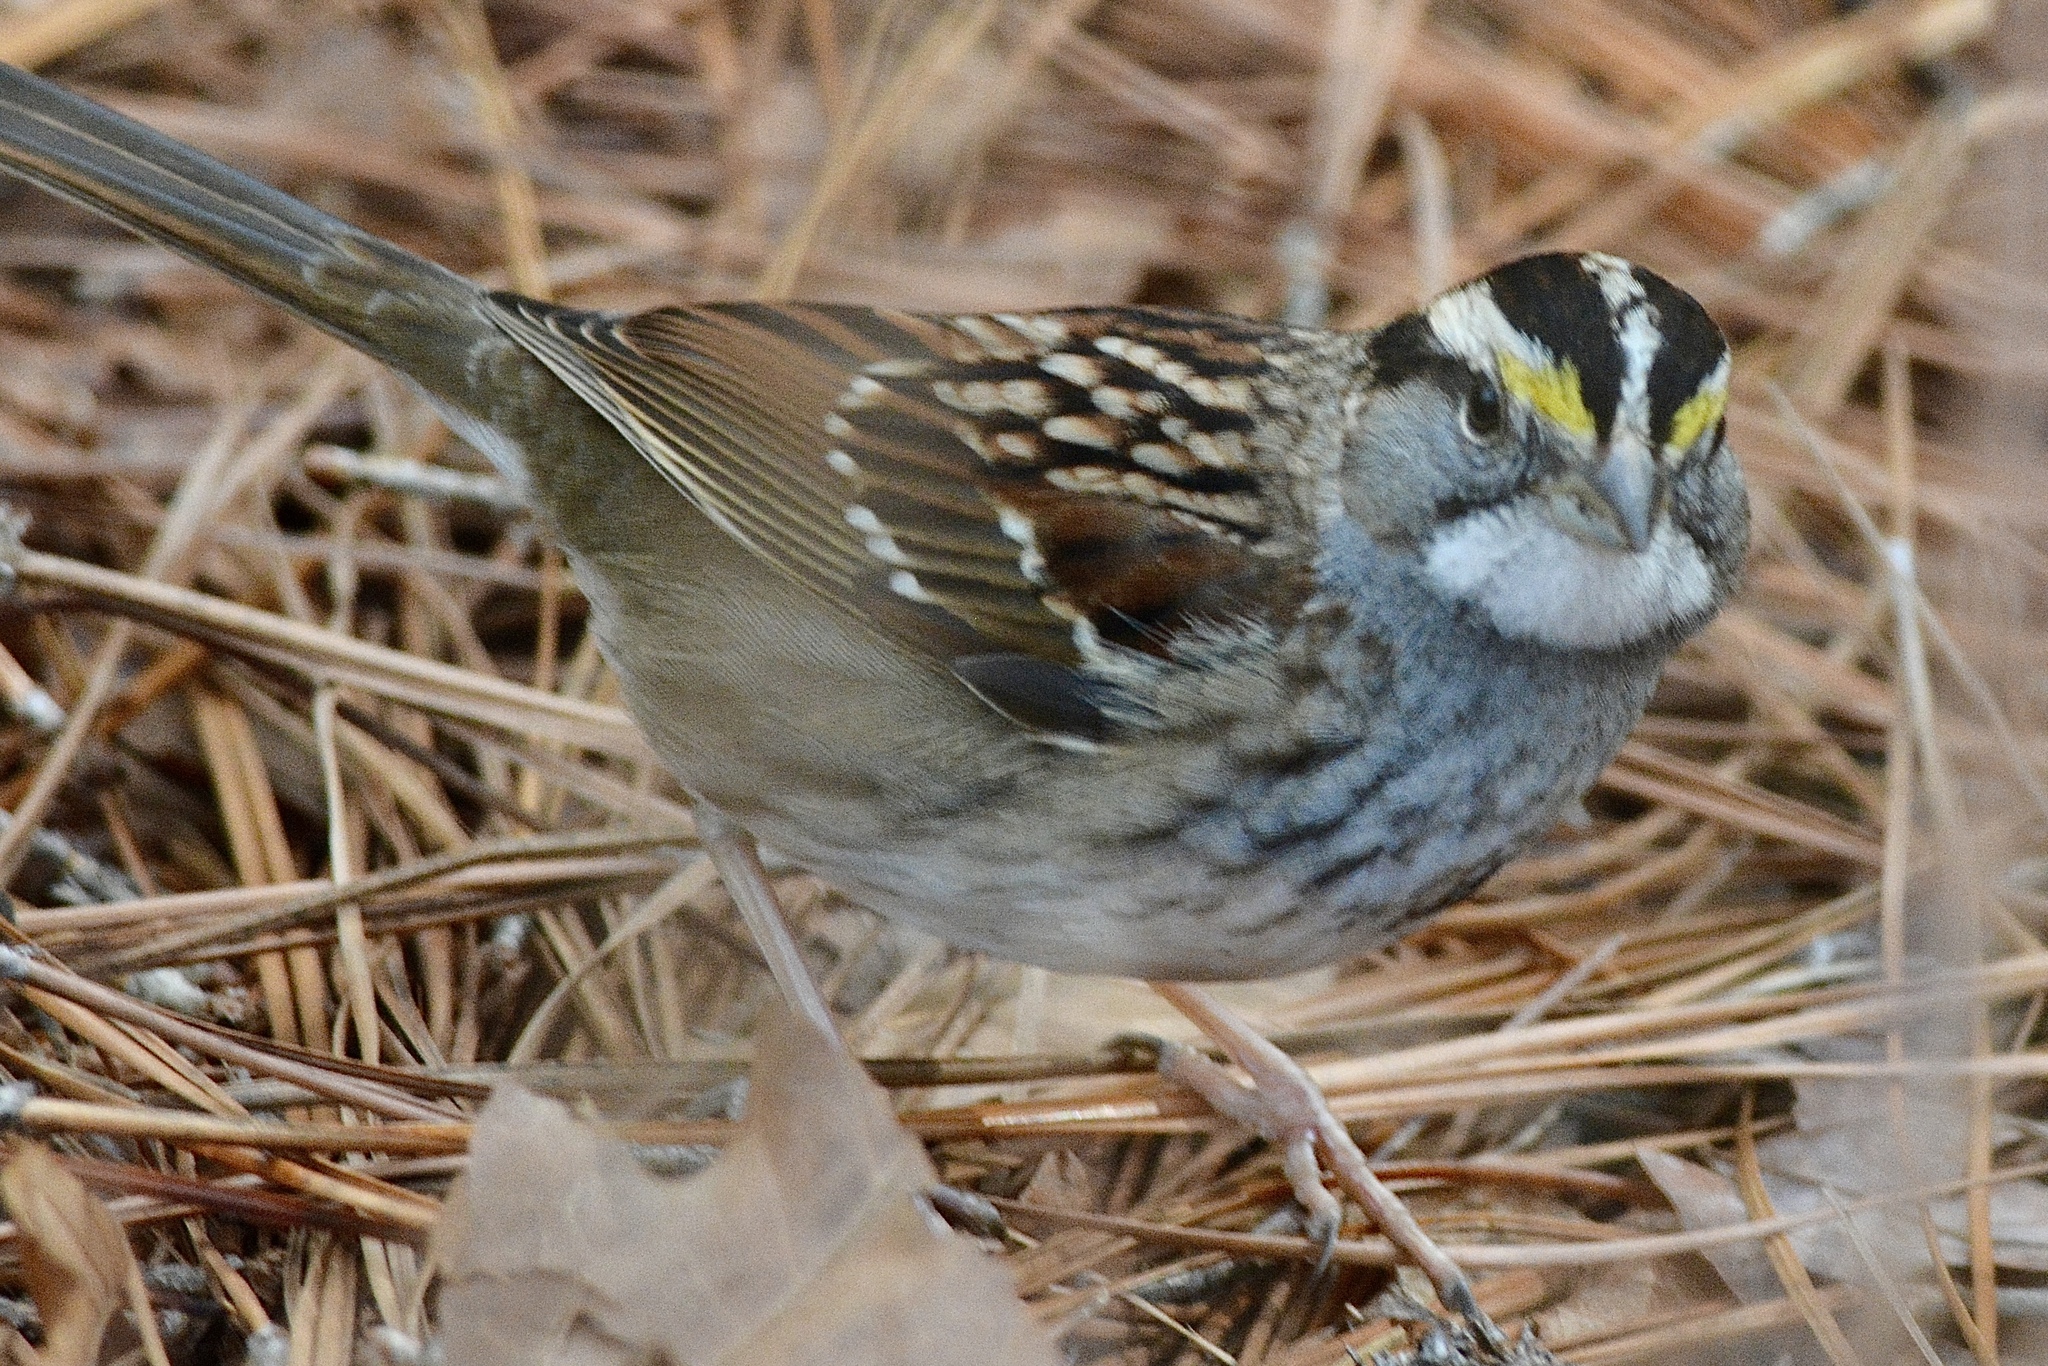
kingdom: Animalia
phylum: Chordata
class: Aves
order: Passeriformes
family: Passerellidae
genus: Zonotrichia
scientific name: Zonotrichia albicollis
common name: White-throated sparrow
